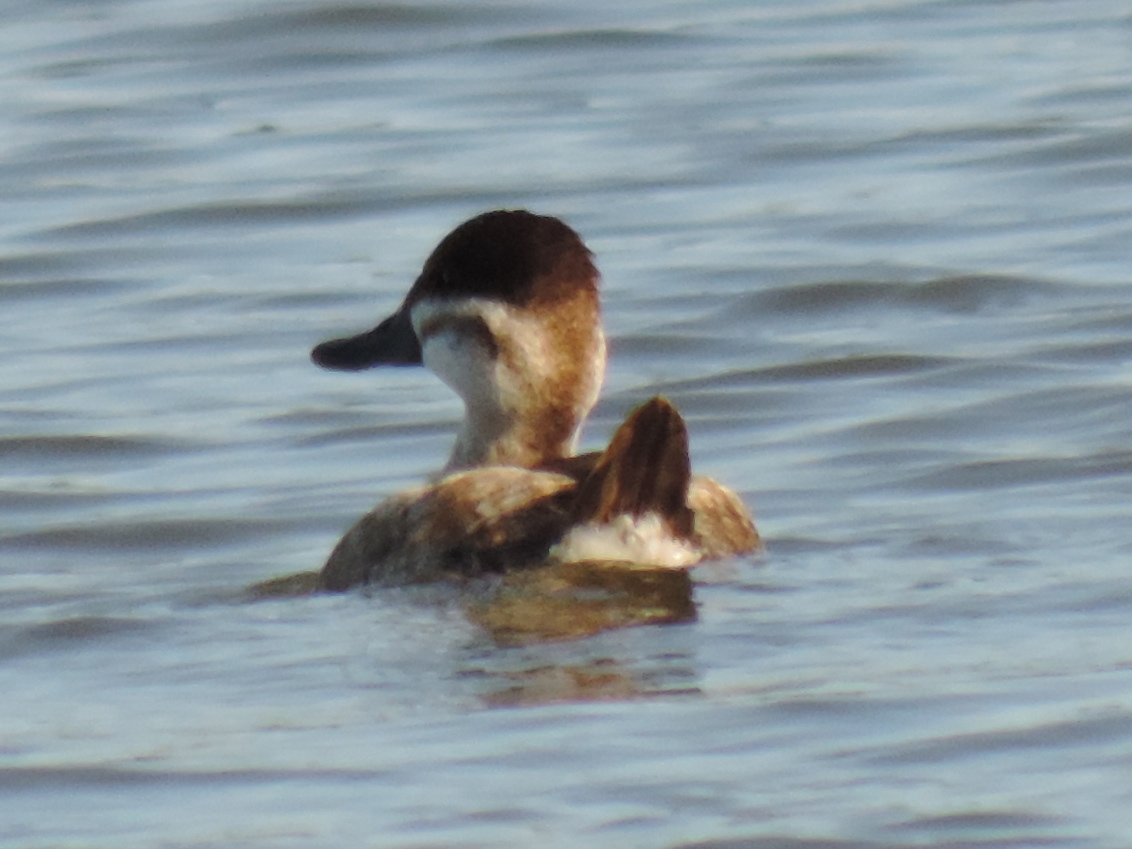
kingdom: Animalia
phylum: Chordata
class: Aves
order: Anseriformes
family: Anatidae
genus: Oxyura
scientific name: Oxyura jamaicensis
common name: Ruddy duck
